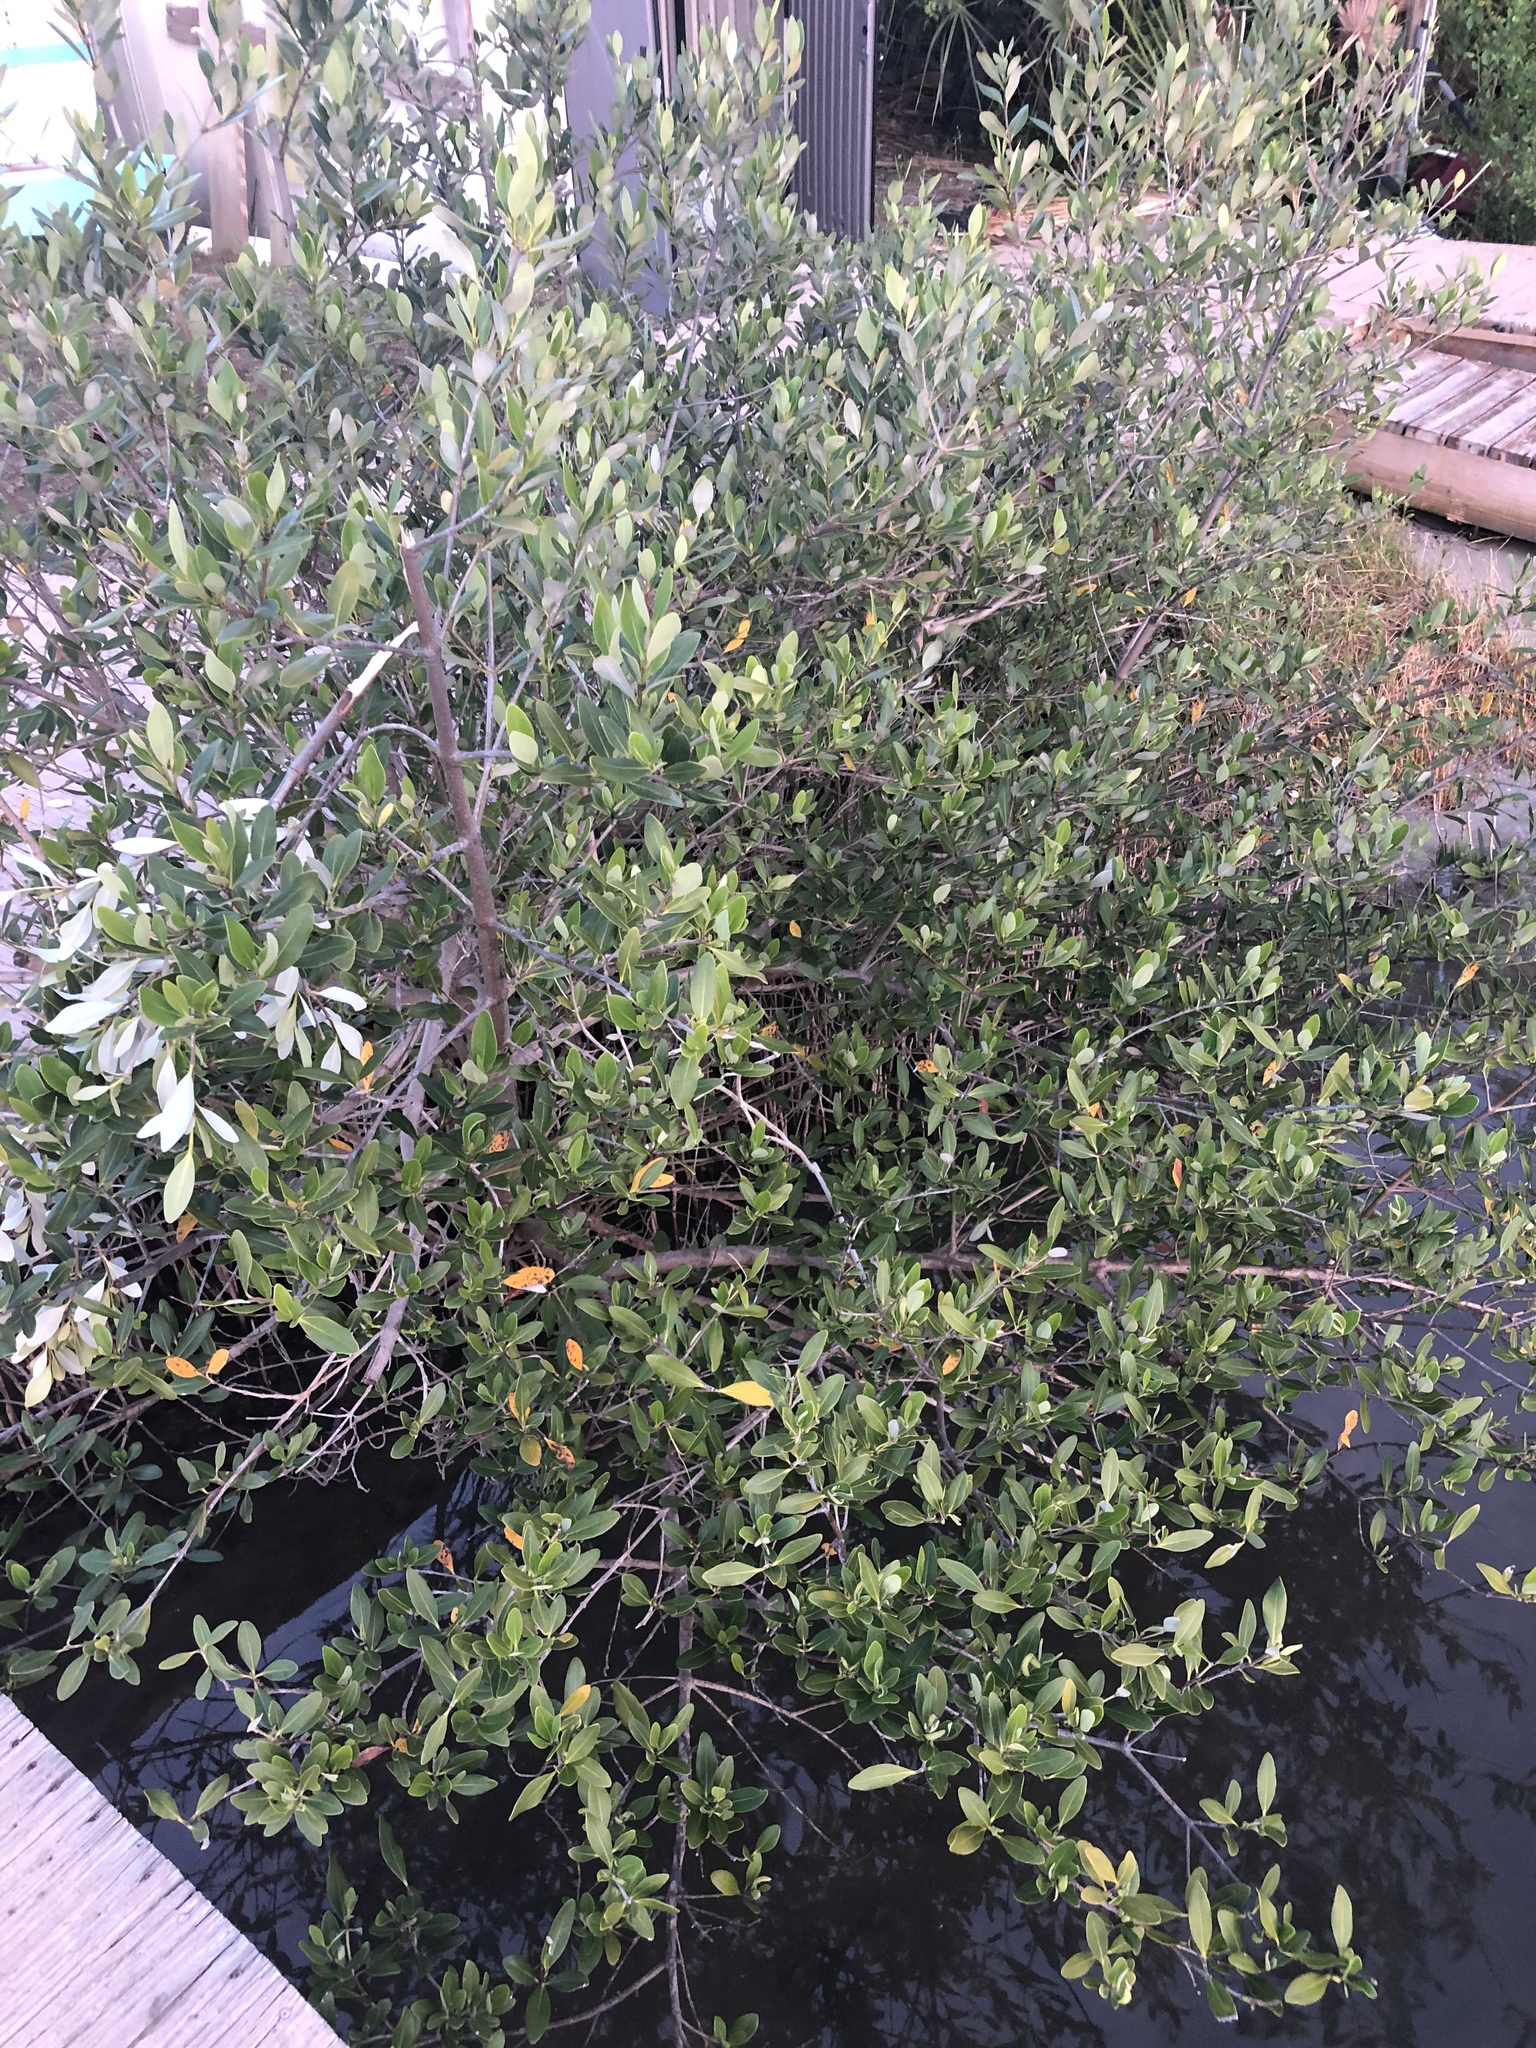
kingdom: Plantae
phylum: Tracheophyta
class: Magnoliopsida
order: Lamiales
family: Acanthaceae
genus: Avicennia
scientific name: Avicennia germinans
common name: Black mangrove
